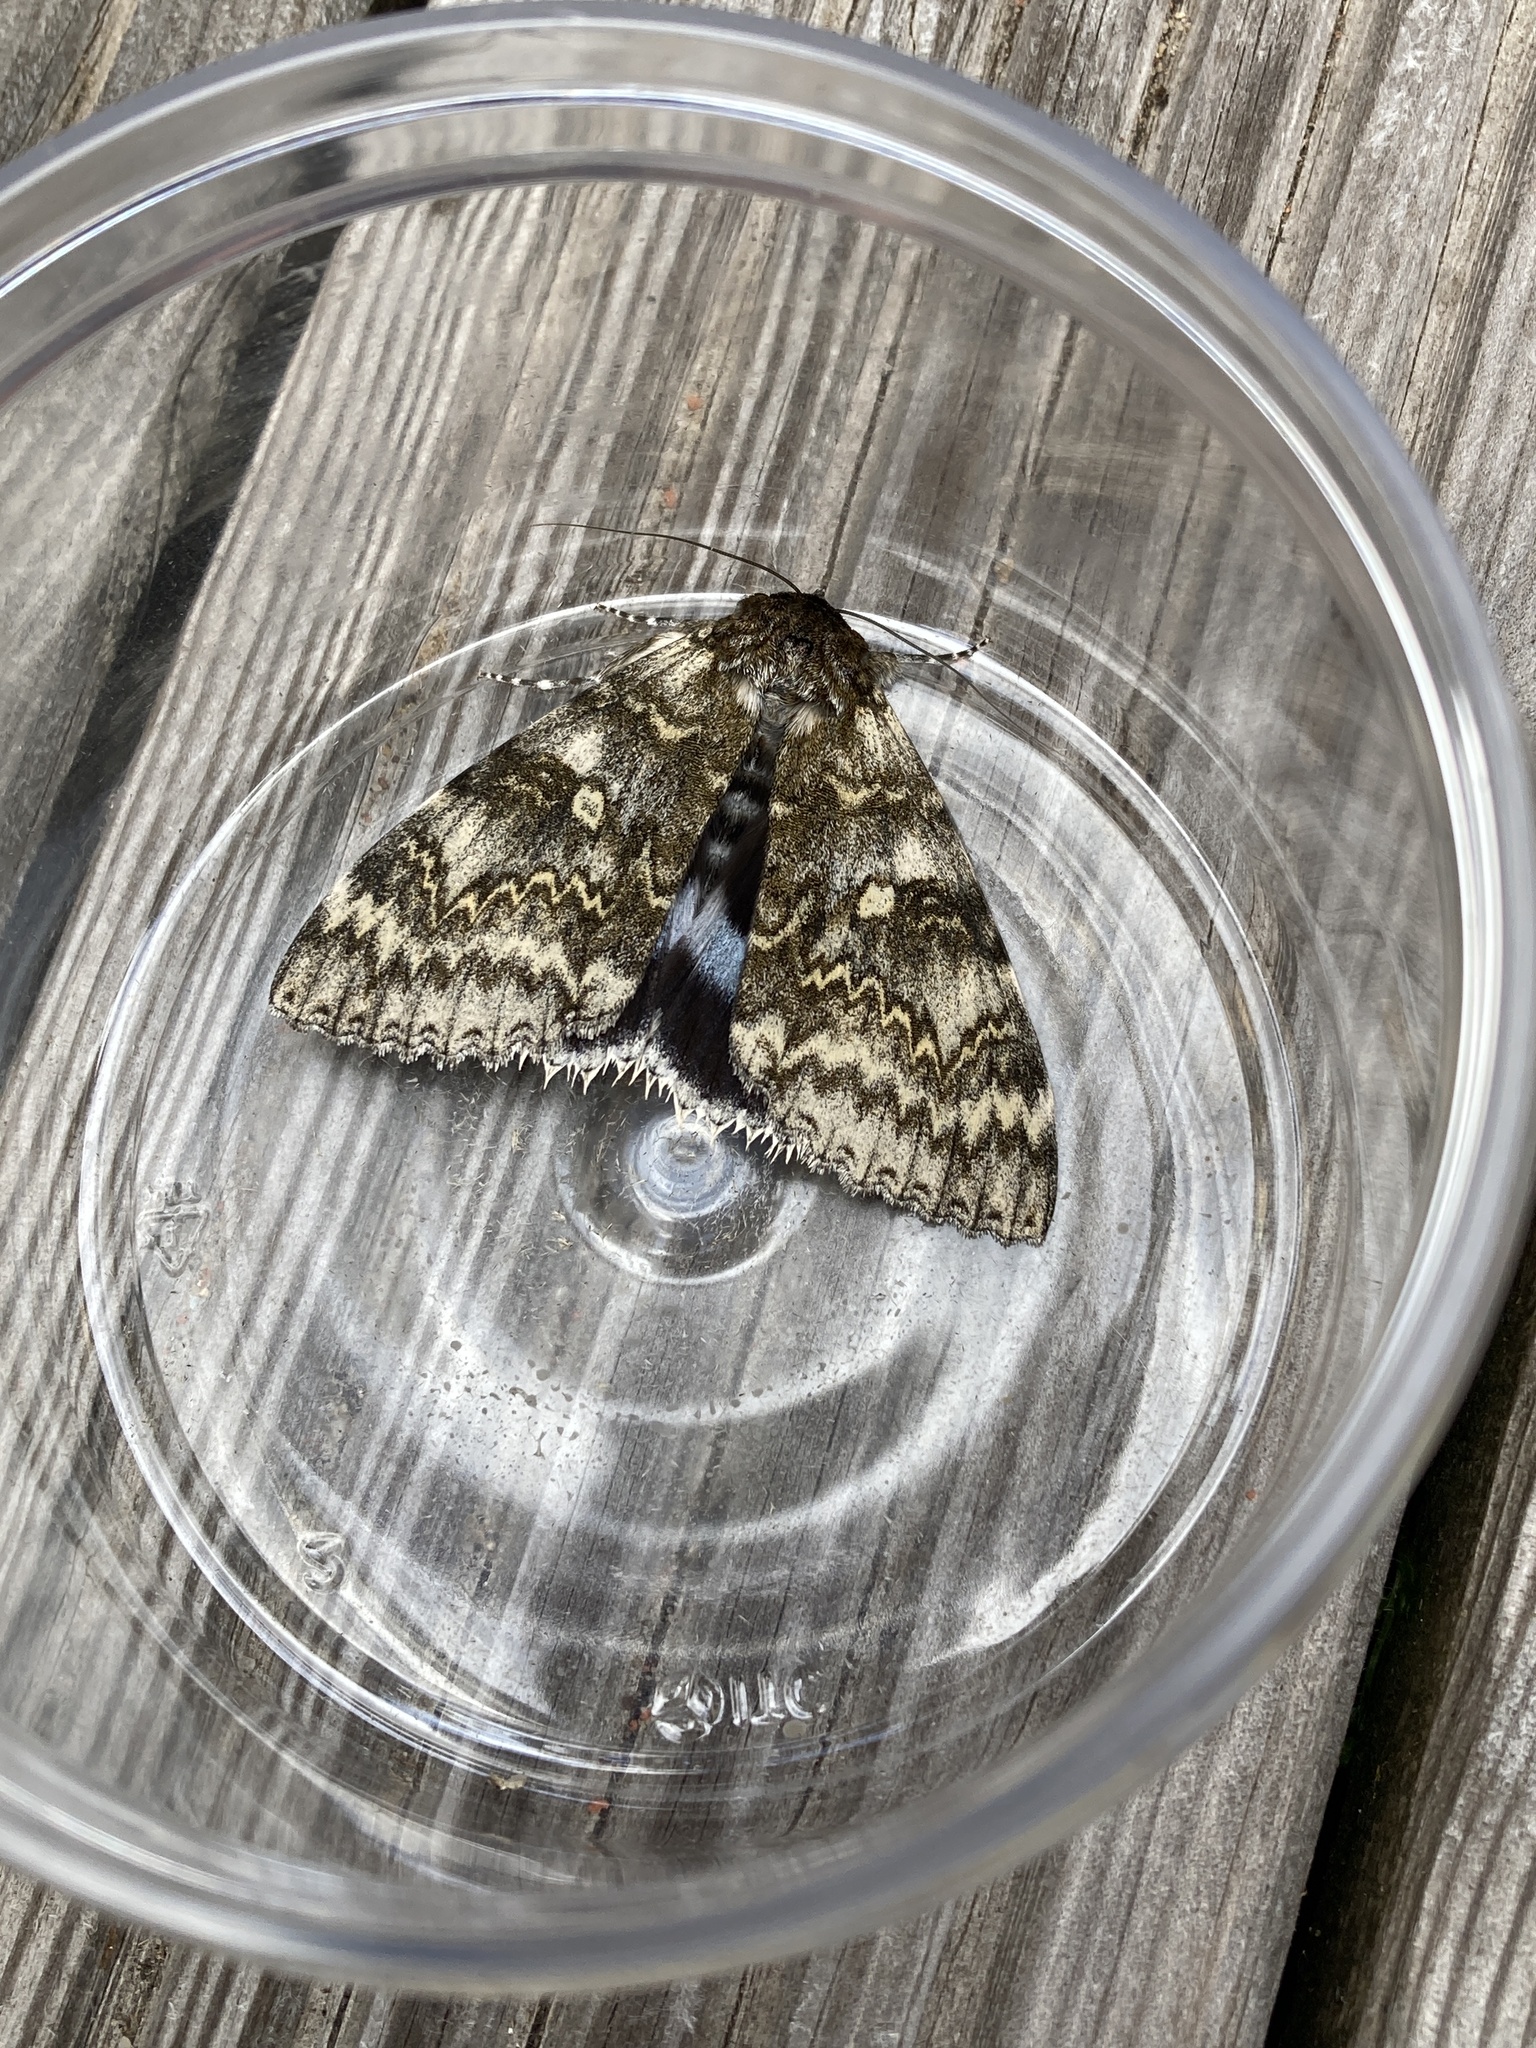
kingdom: Animalia
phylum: Arthropoda
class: Insecta
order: Lepidoptera
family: Erebidae
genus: Catocala
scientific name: Catocala fraxini
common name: Clifden nonpareil
